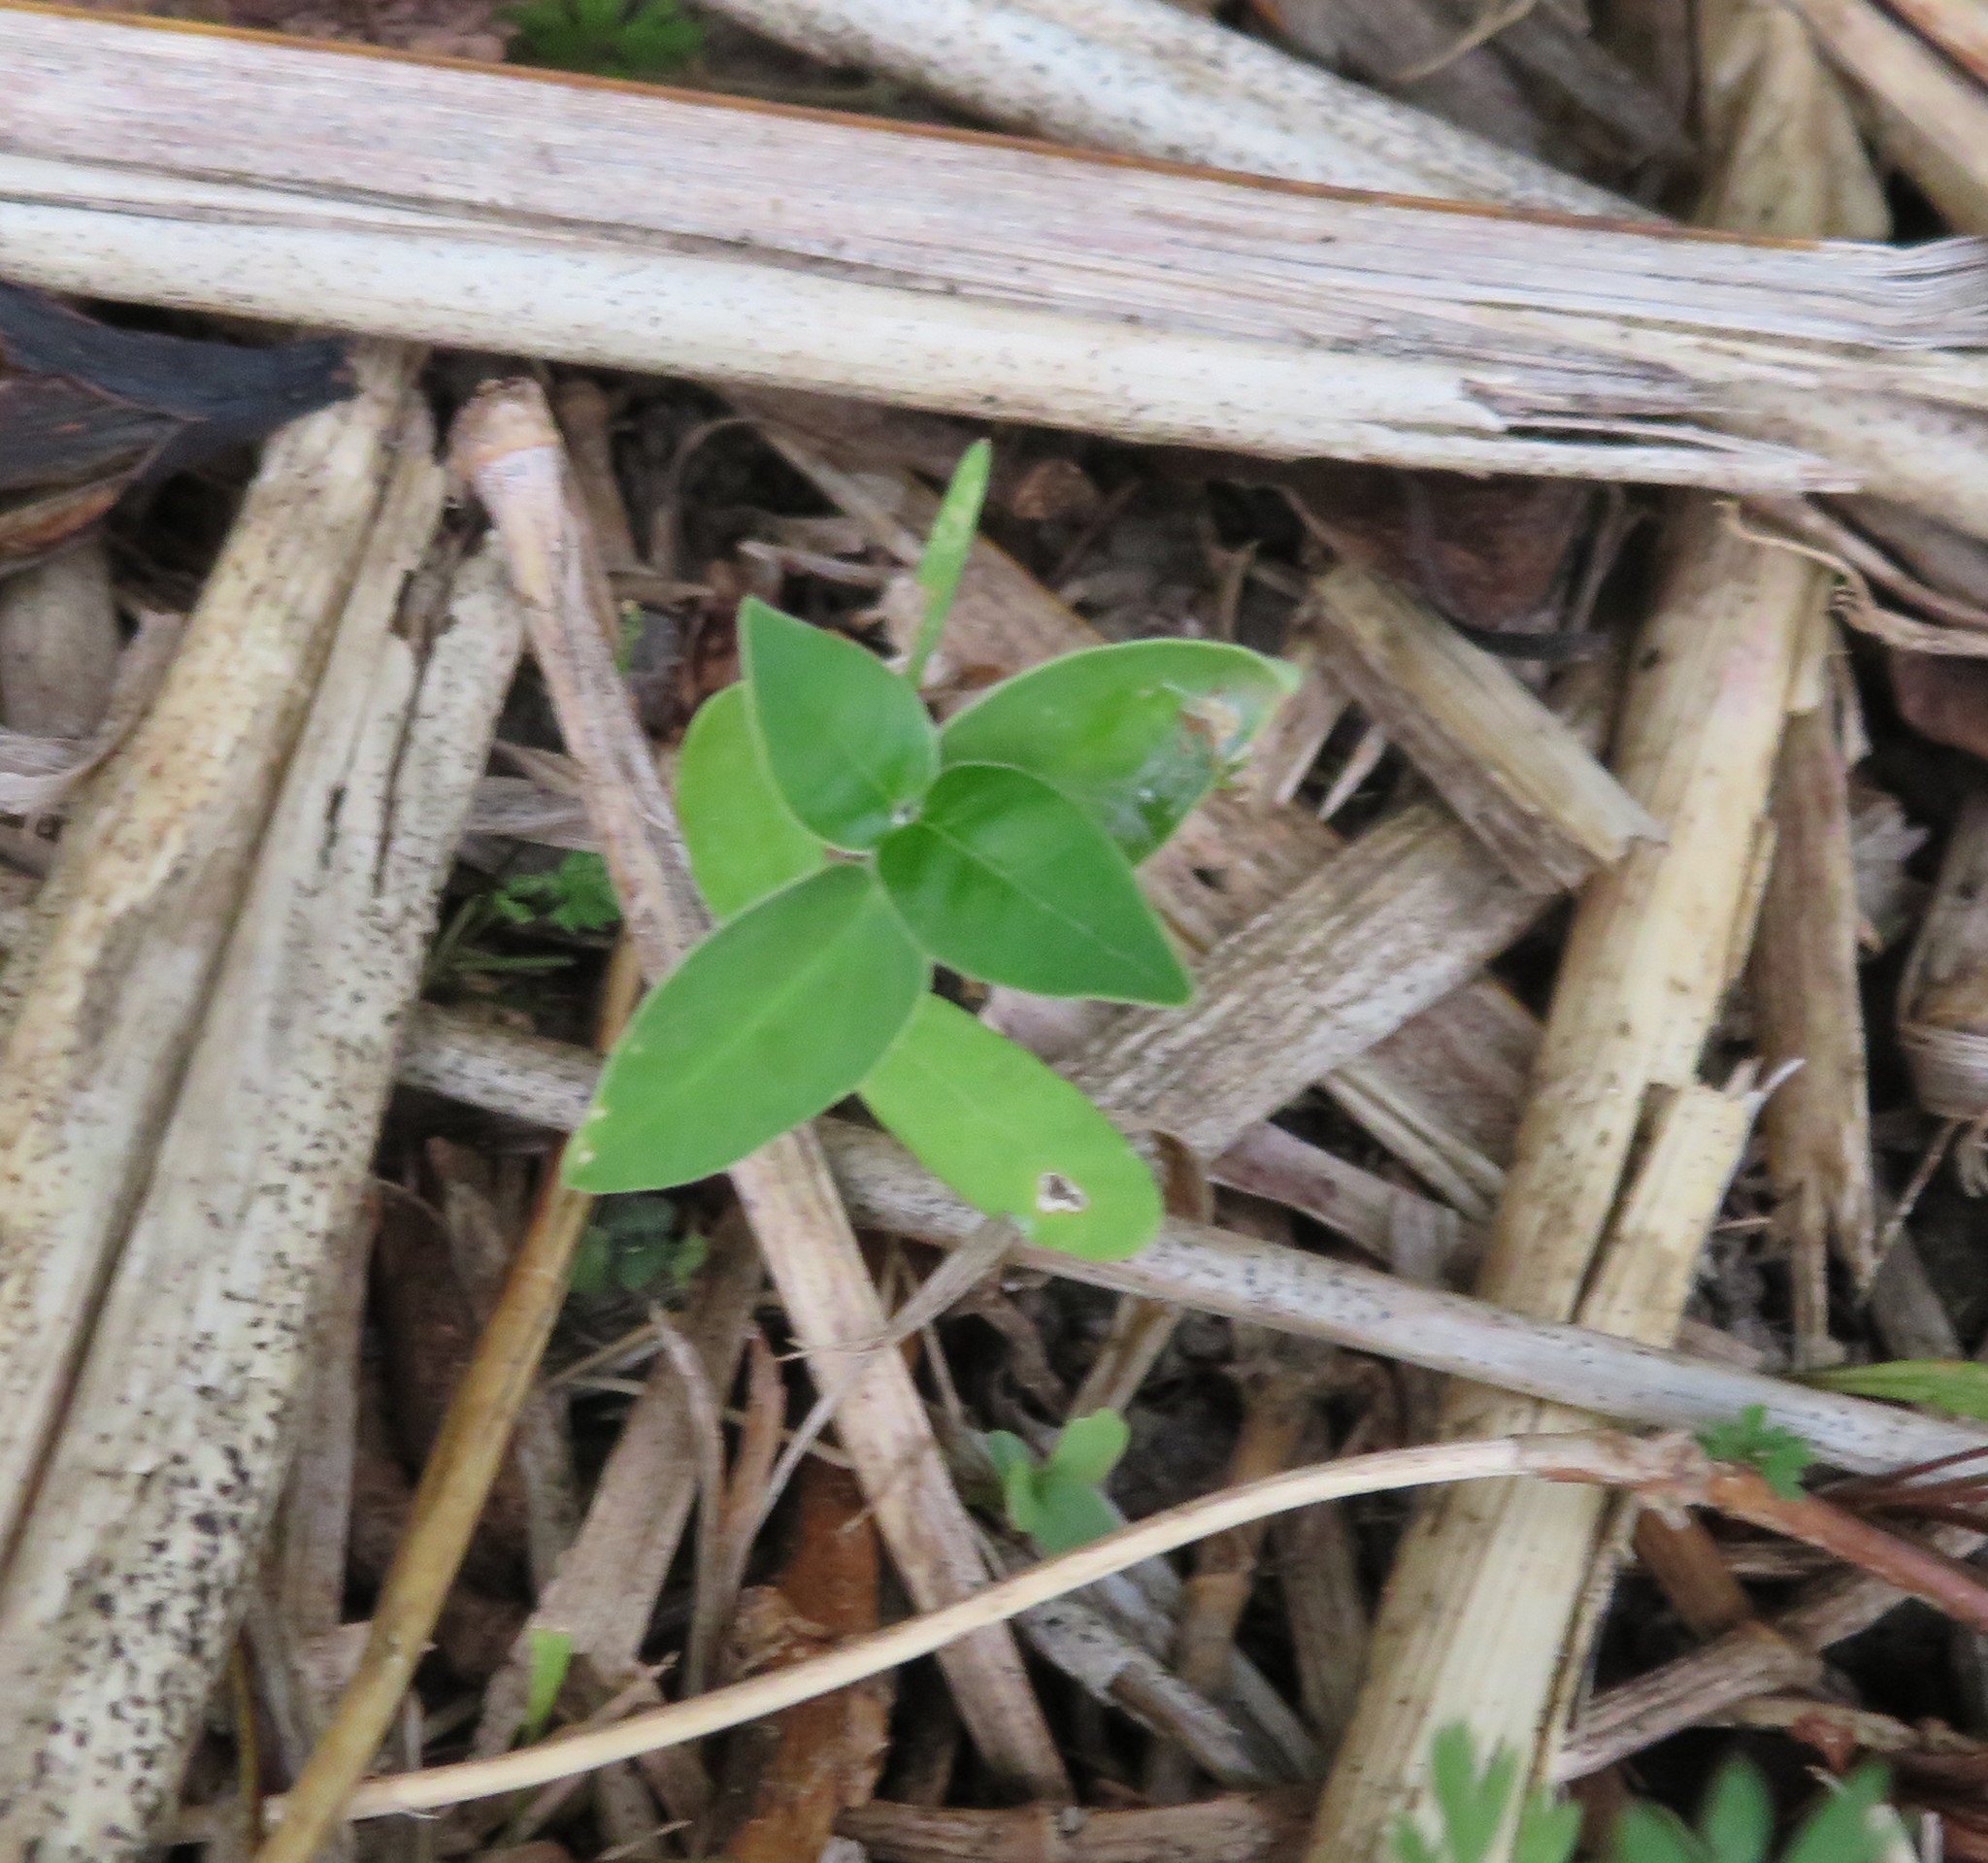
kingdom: Plantae
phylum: Tracheophyta
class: Magnoliopsida
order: Gentianales
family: Apocynaceae
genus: Araujia
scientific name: Araujia sericifera
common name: White bladderflower
